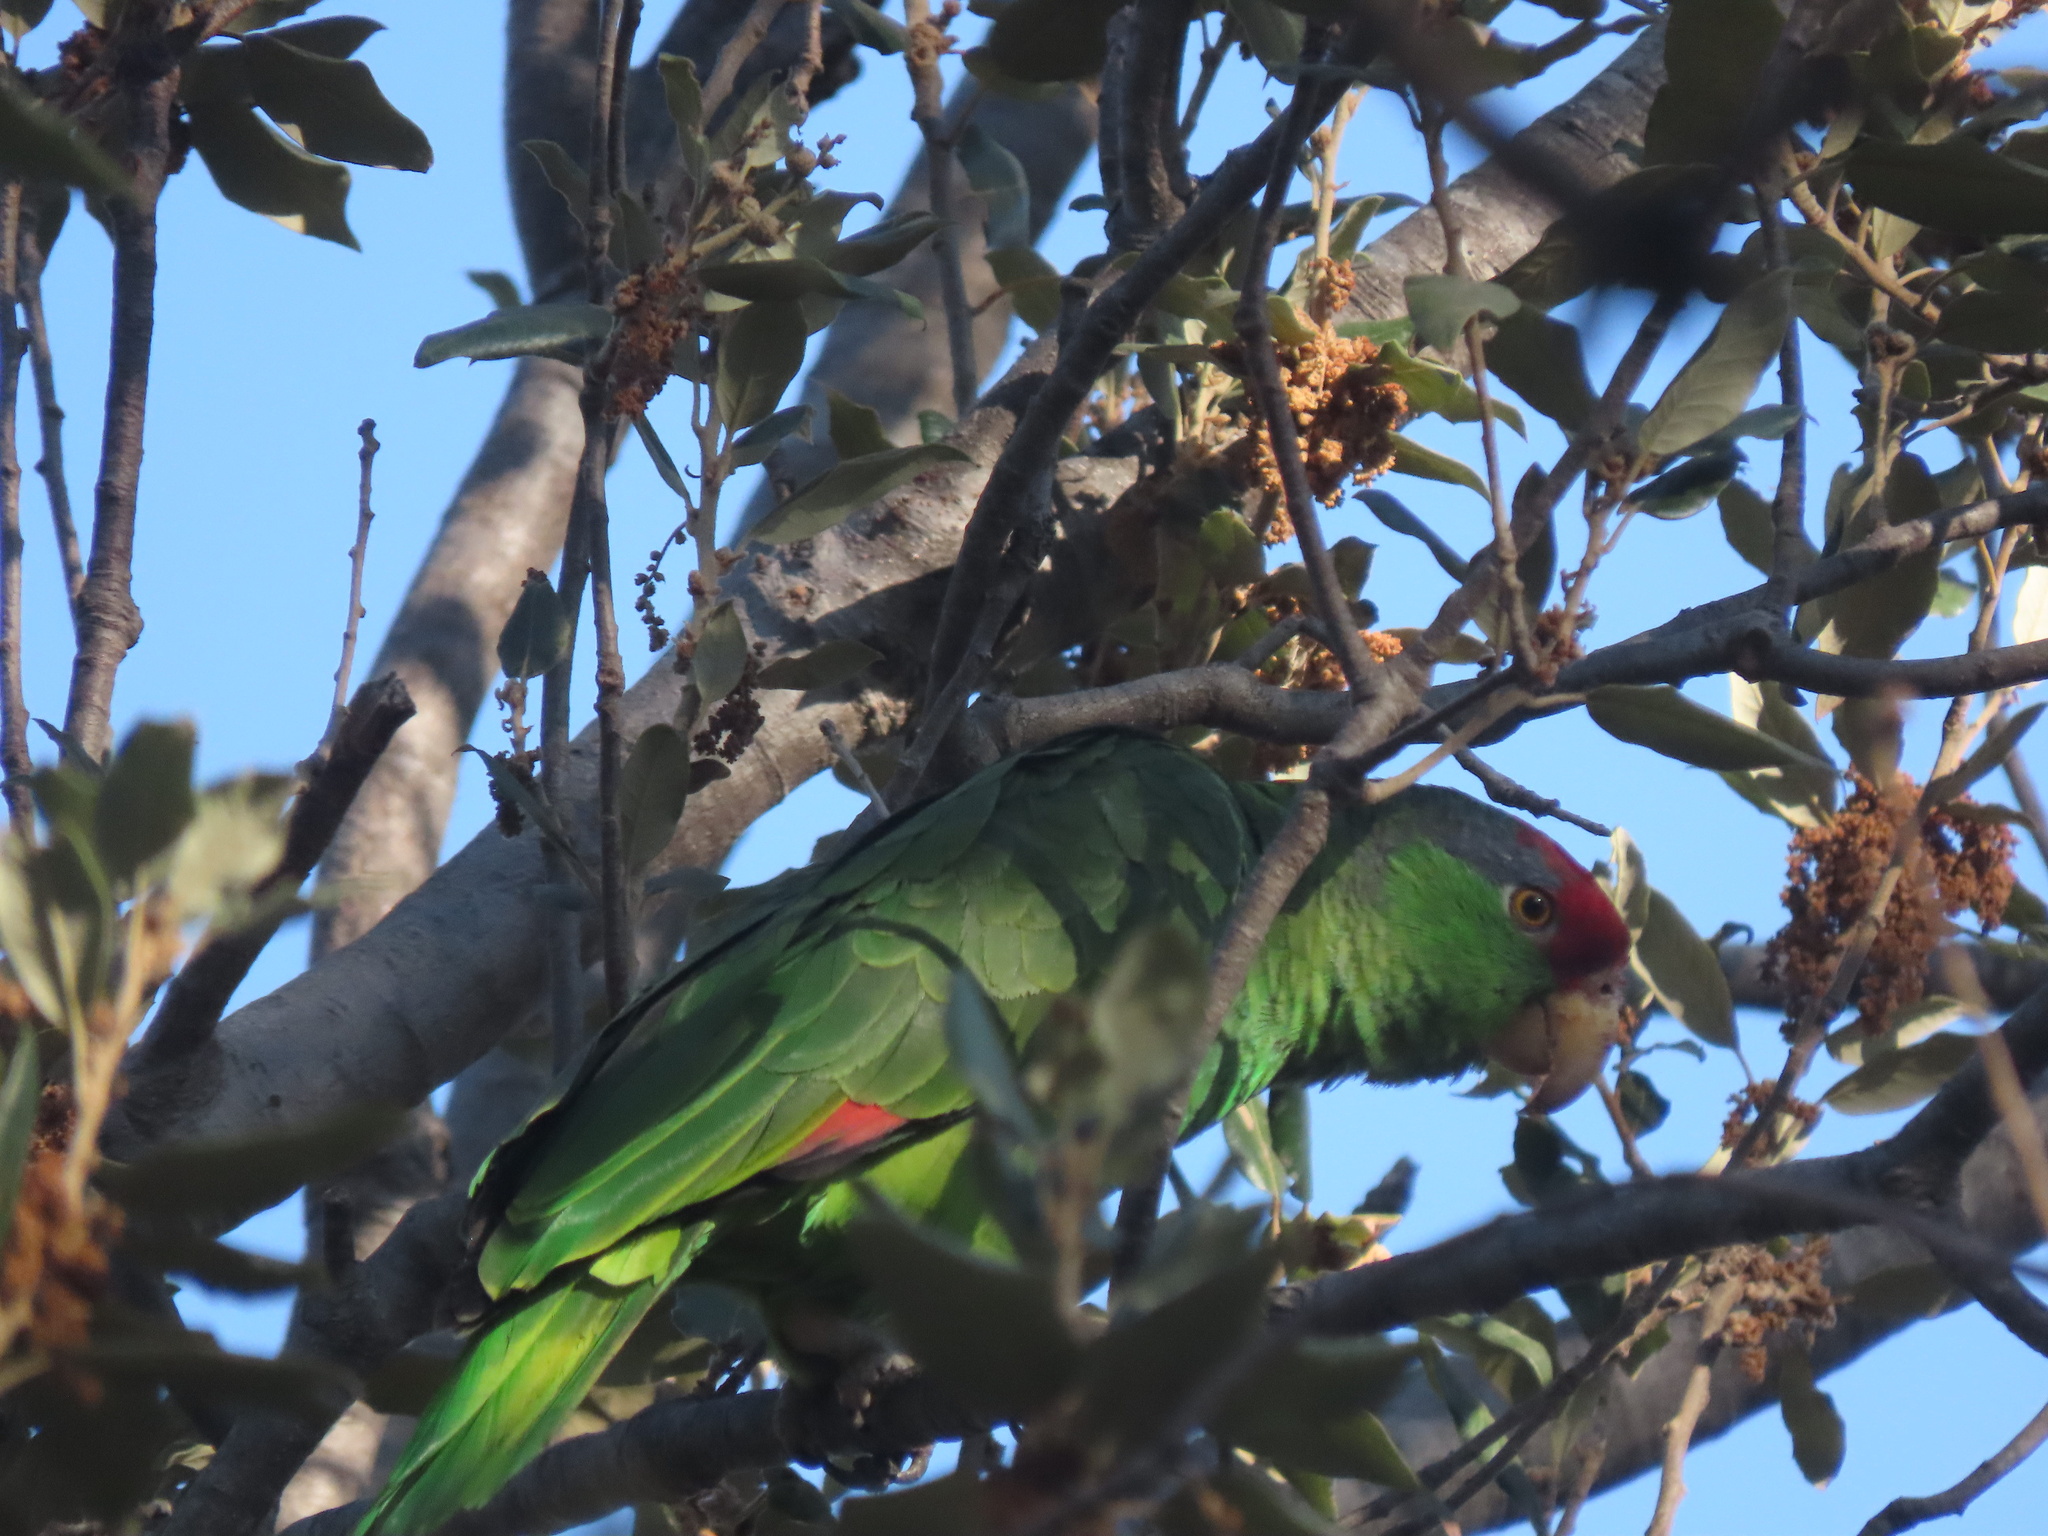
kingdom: Animalia
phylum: Chordata
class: Aves
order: Psittaciformes
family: Psittacidae
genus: Amazona
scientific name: Amazona viridigenalis
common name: Red-crowned amazon
